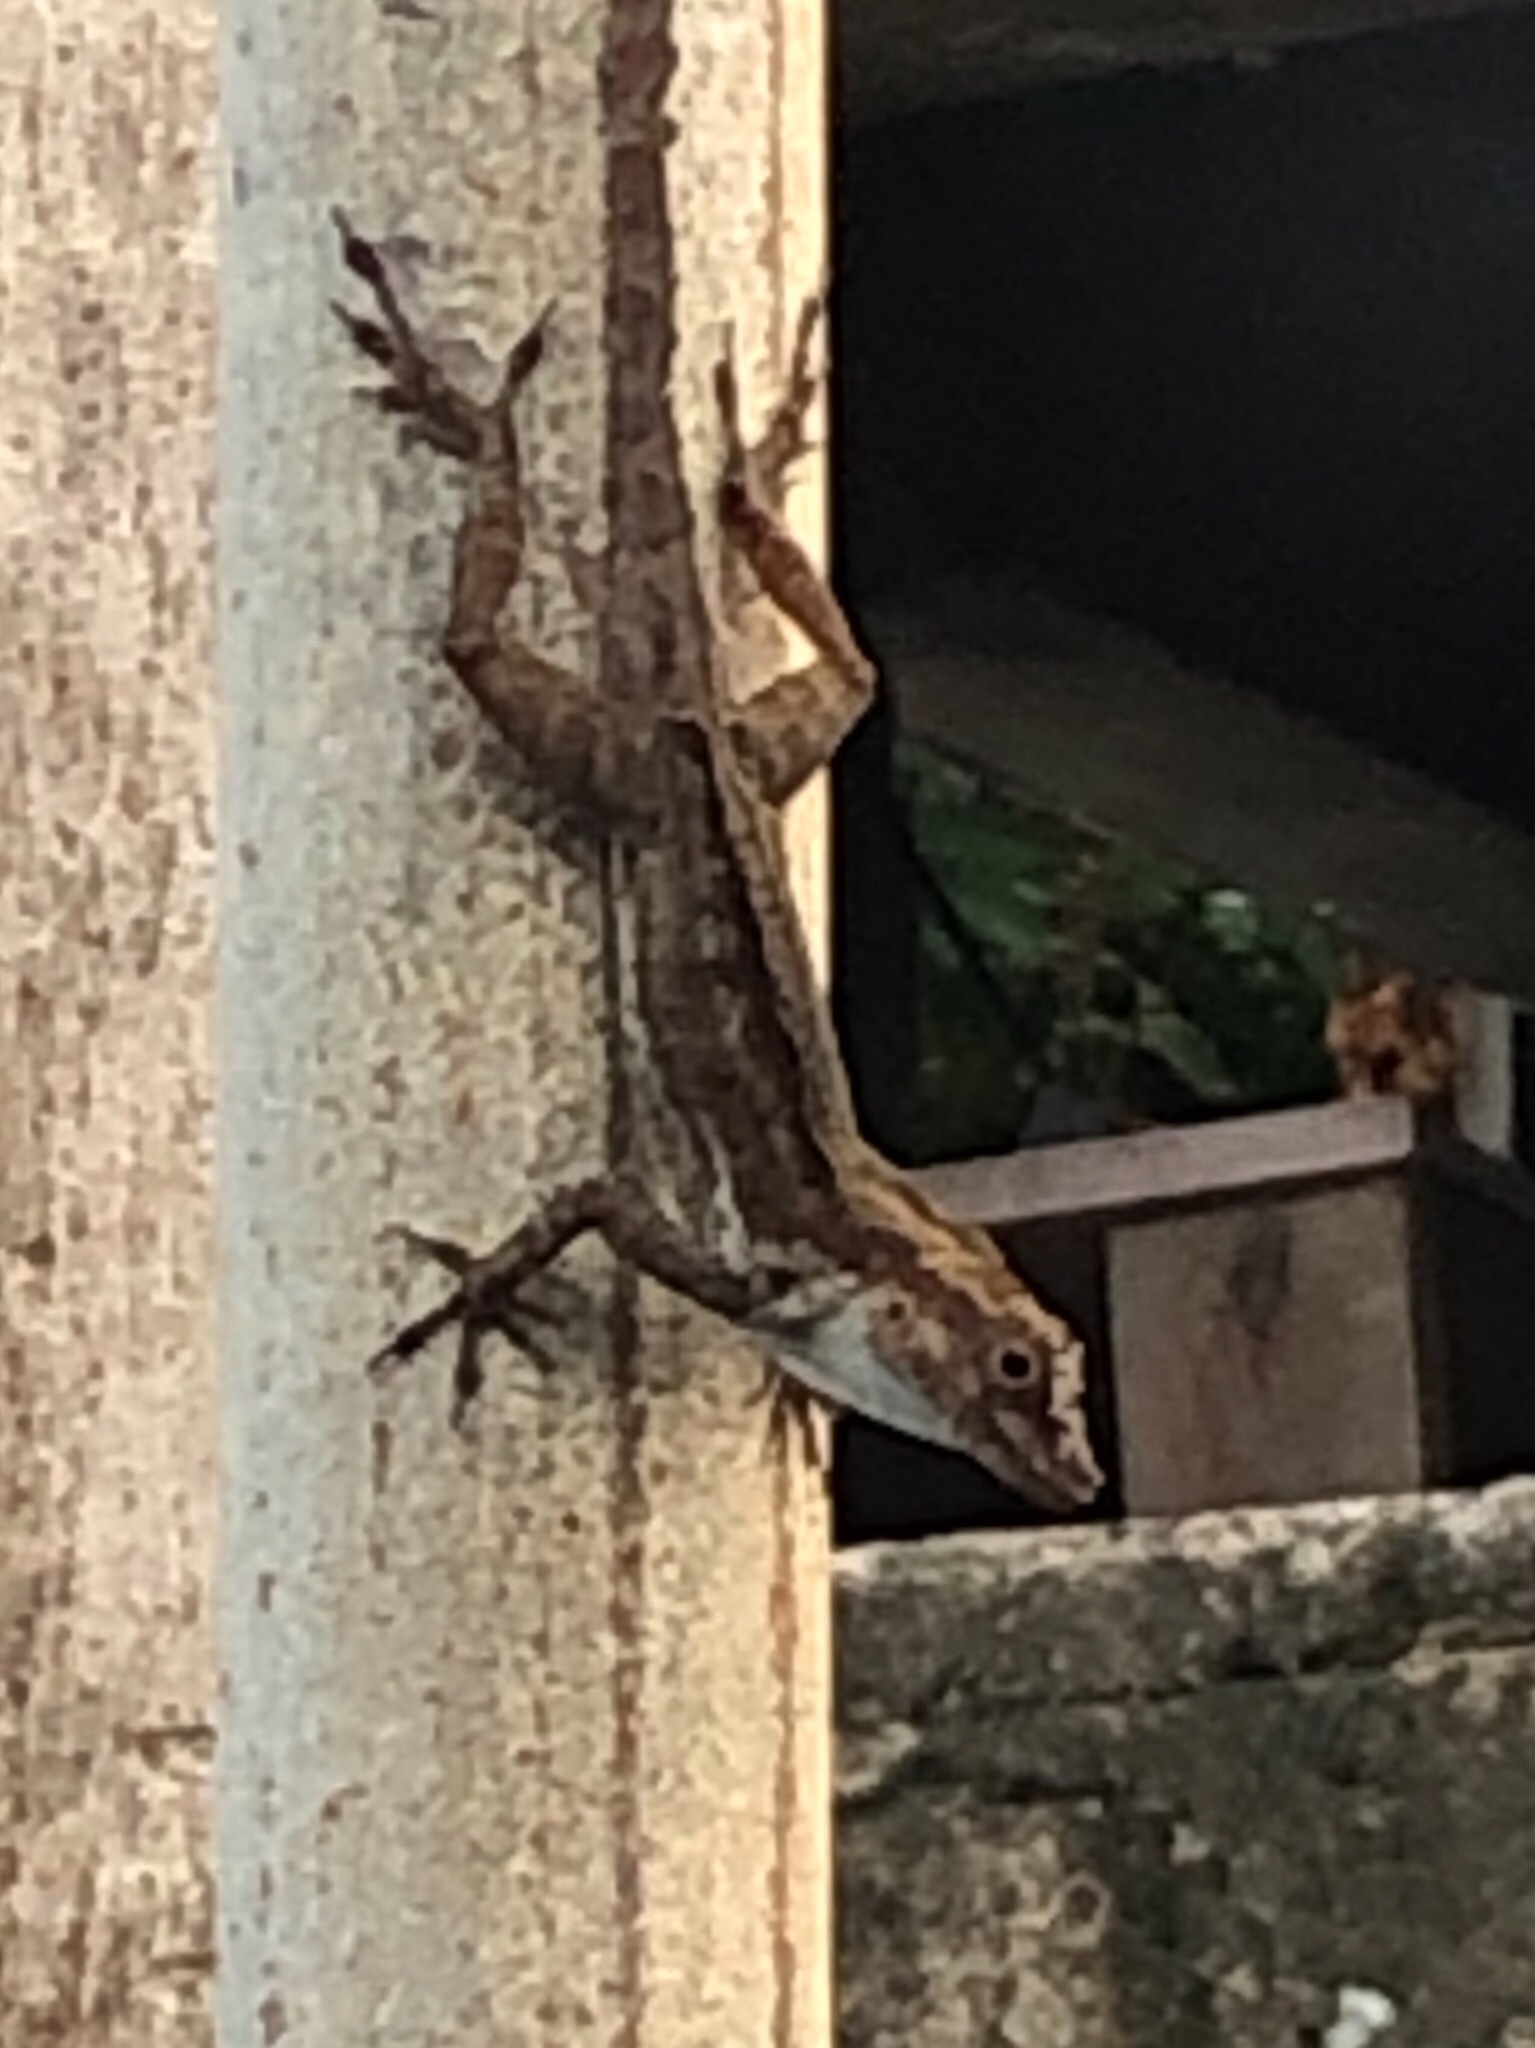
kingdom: Animalia
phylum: Chordata
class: Squamata
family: Dactyloidae
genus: Anolis
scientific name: Anolis cristatellus
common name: Crested anole
